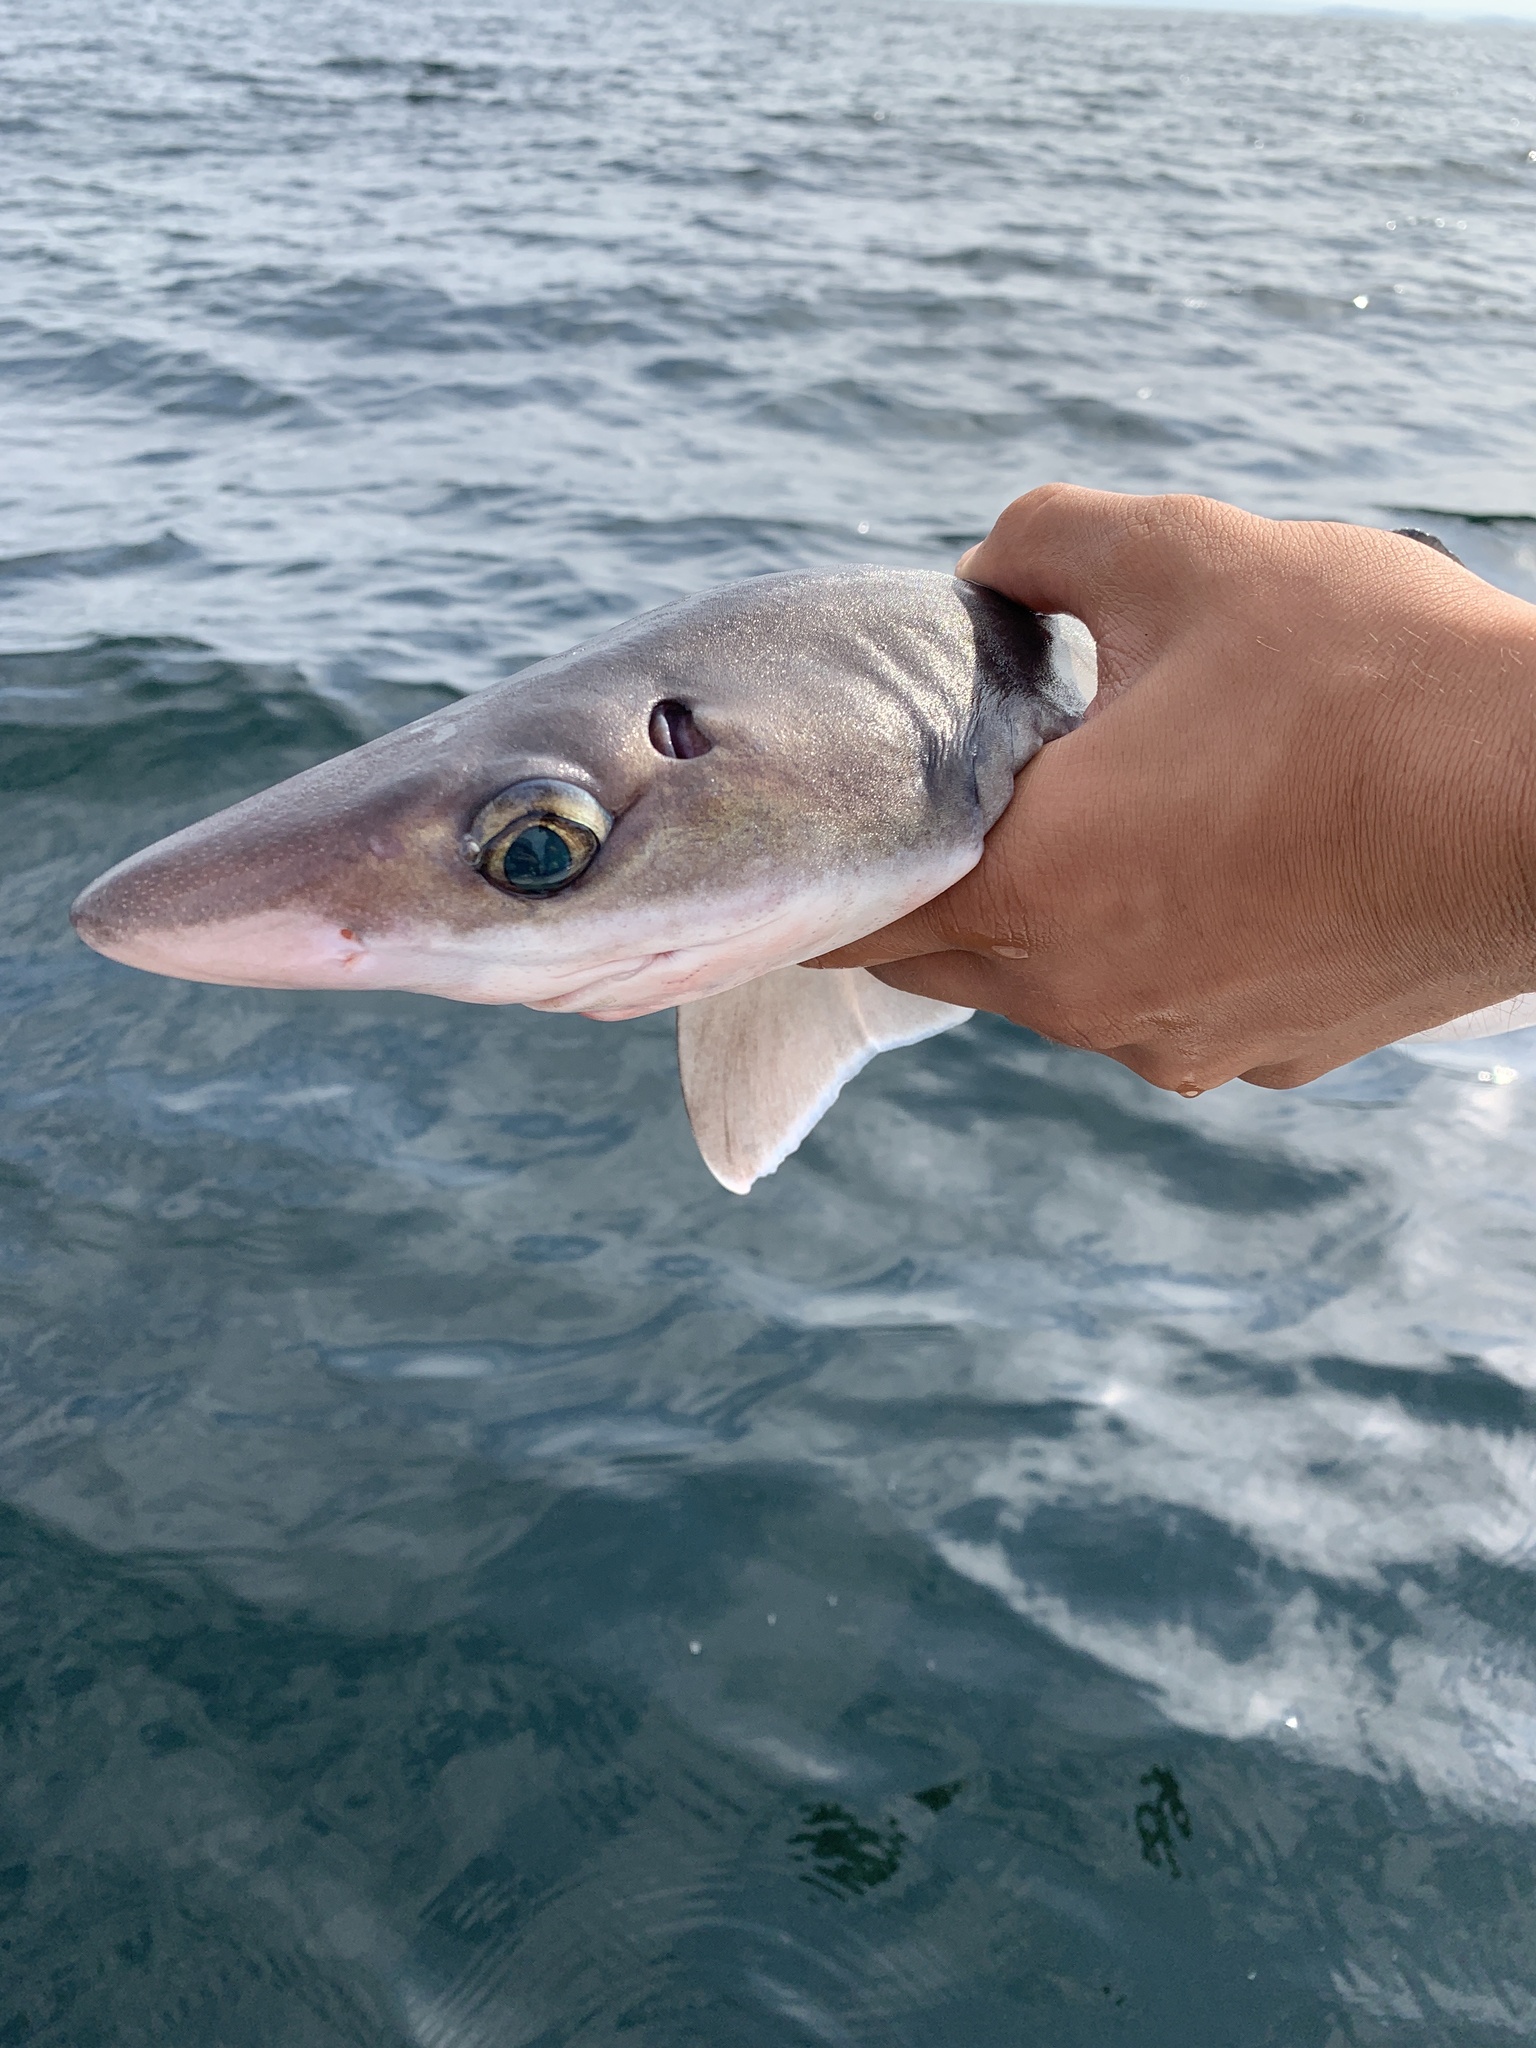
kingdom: Animalia
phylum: Chordata
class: Elasmobranchii
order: Squaliformes
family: Squalidae
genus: Squalus
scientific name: Squalus suckleyi
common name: Spiny dogfish
